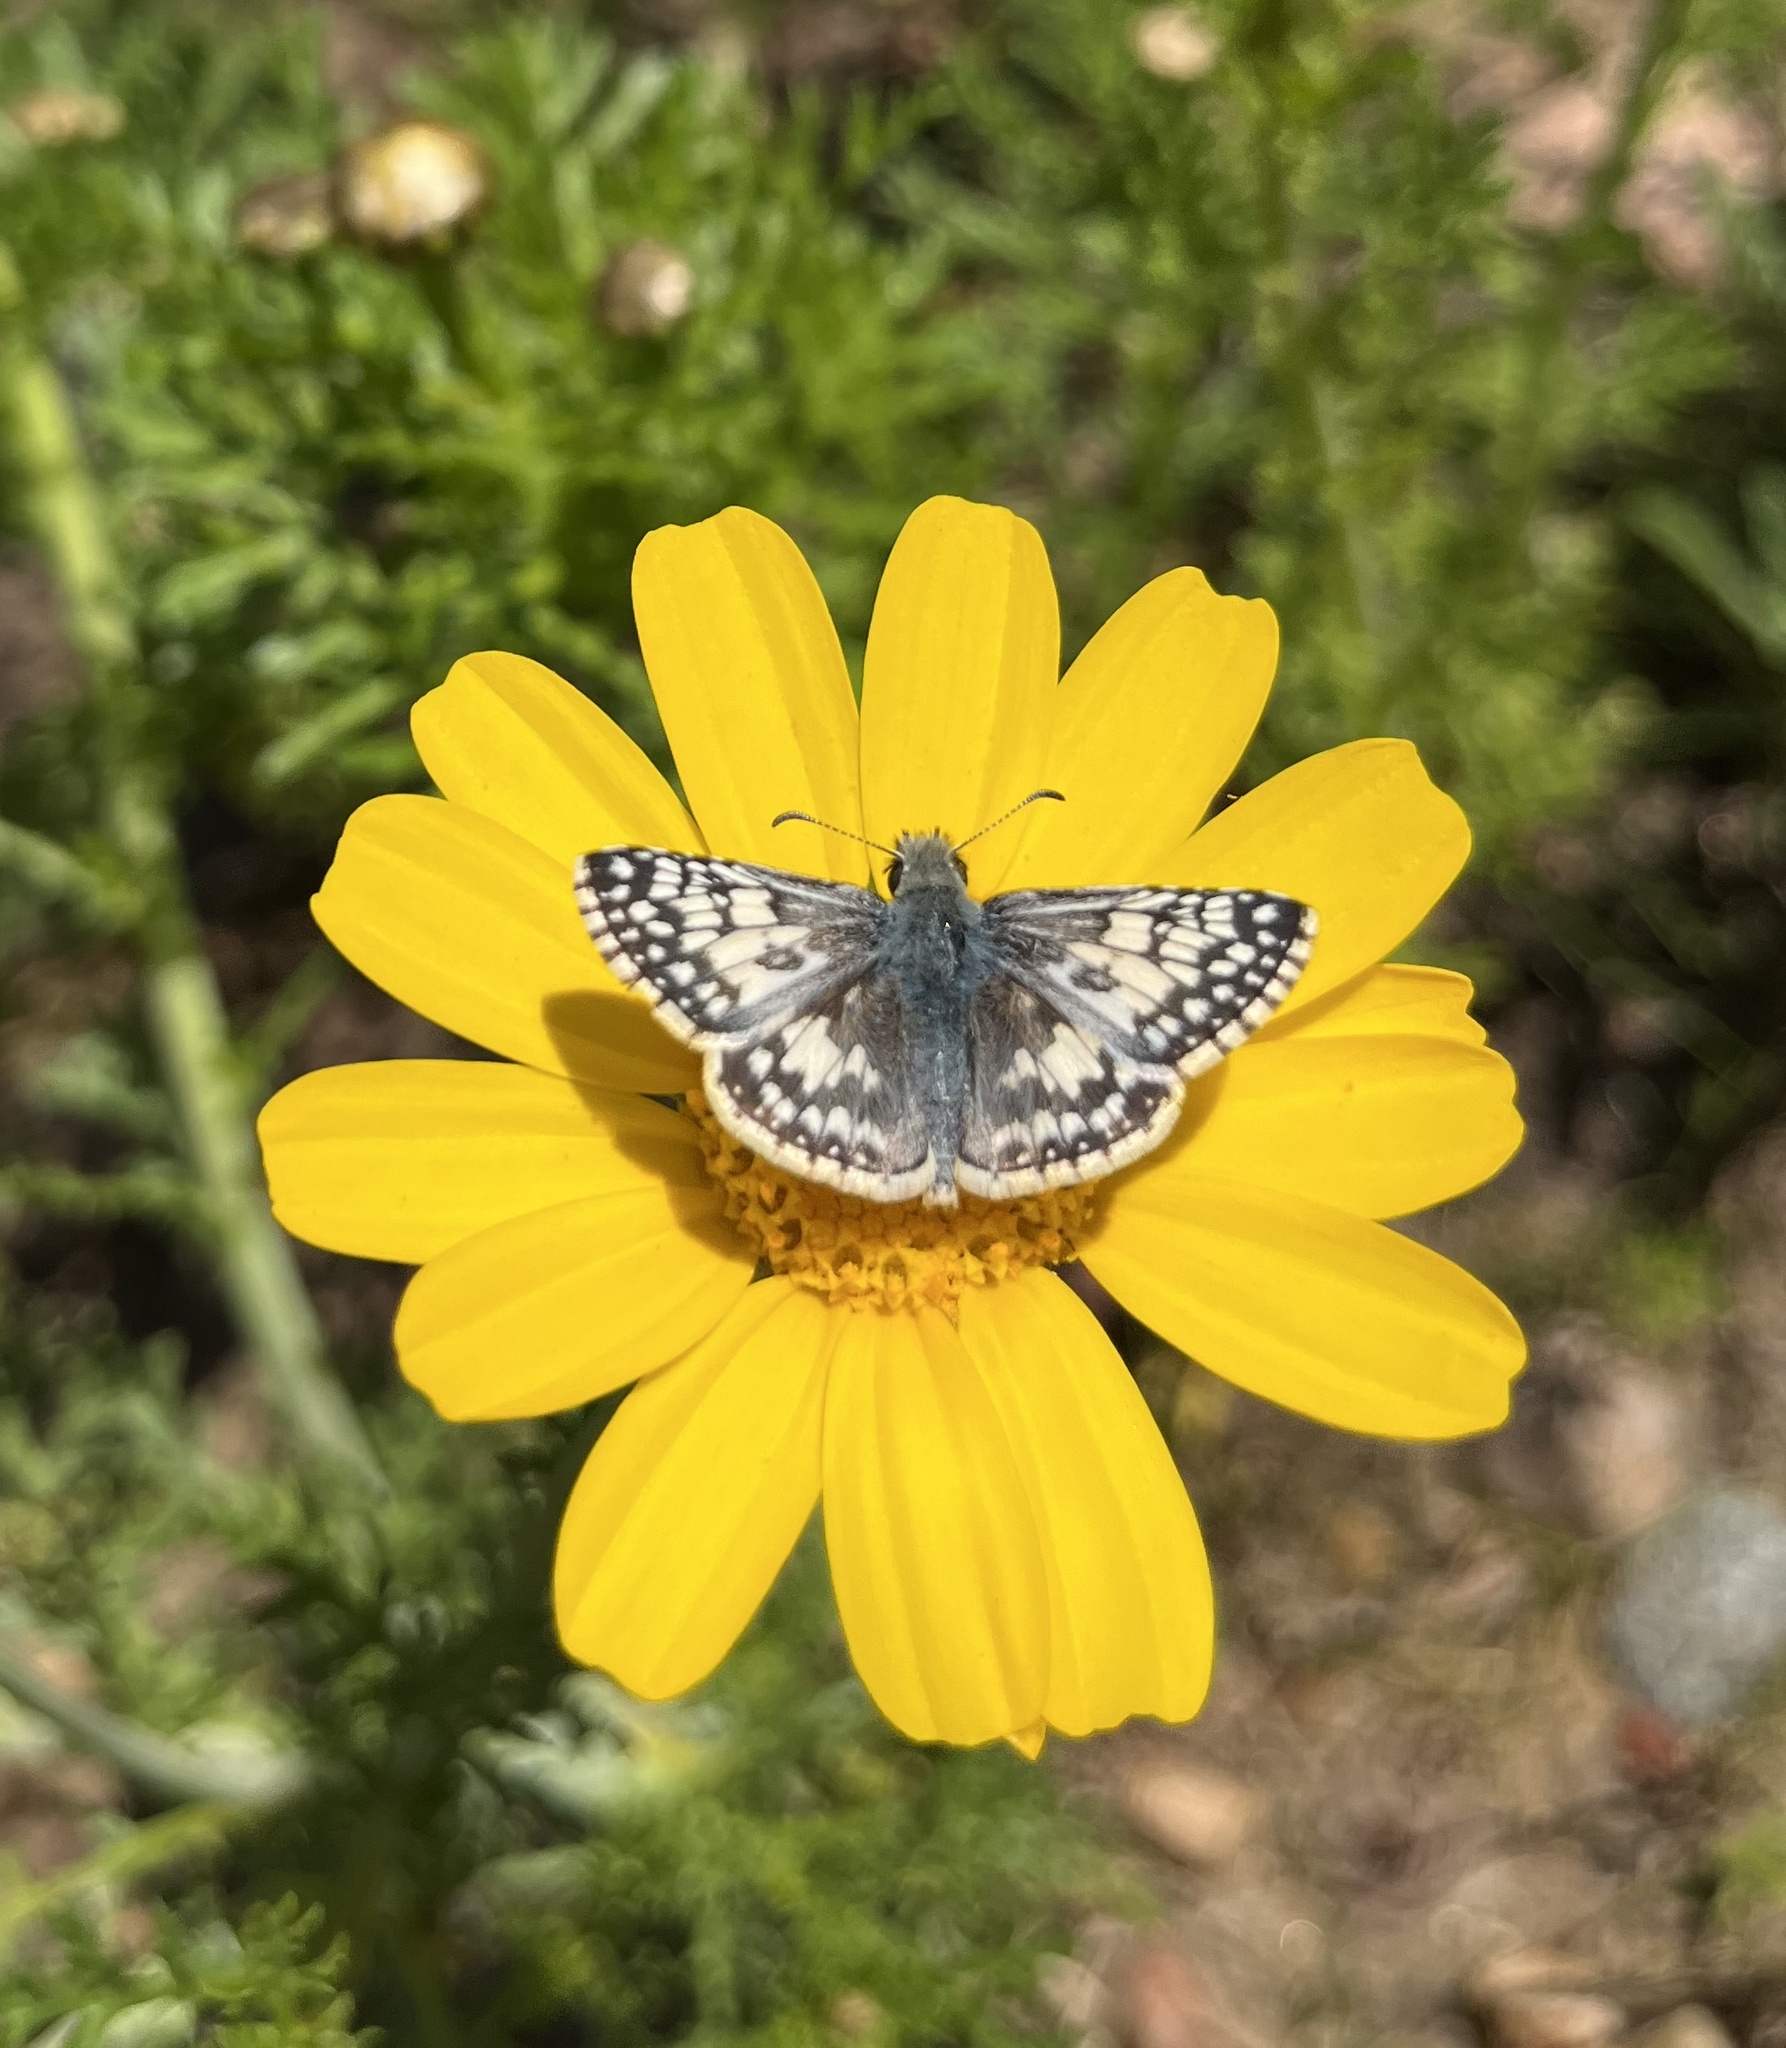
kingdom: Animalia
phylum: Arthropoda
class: Insecta
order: Lepidoptera
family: Hesperiidae
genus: Burnsius
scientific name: Burnsius albezens
